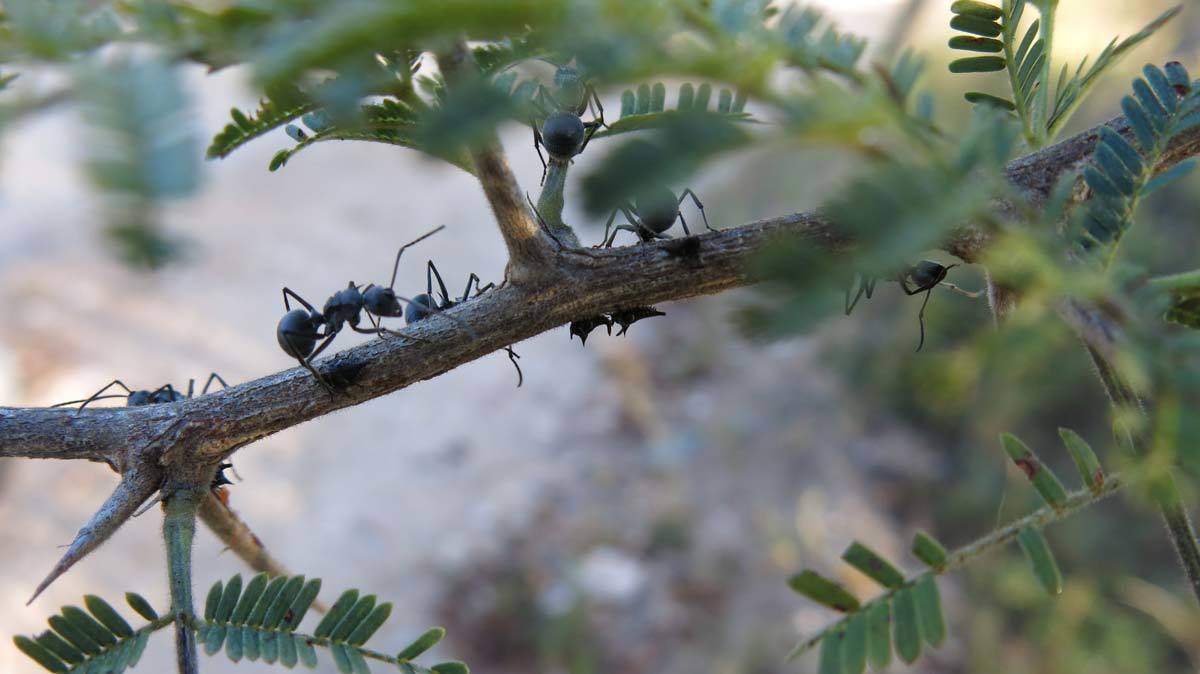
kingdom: Animalia
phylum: Arthropoda
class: Insecta
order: Hymenoptera
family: Formicidae
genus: Polyrhachis
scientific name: Polyrhachis schistacea
